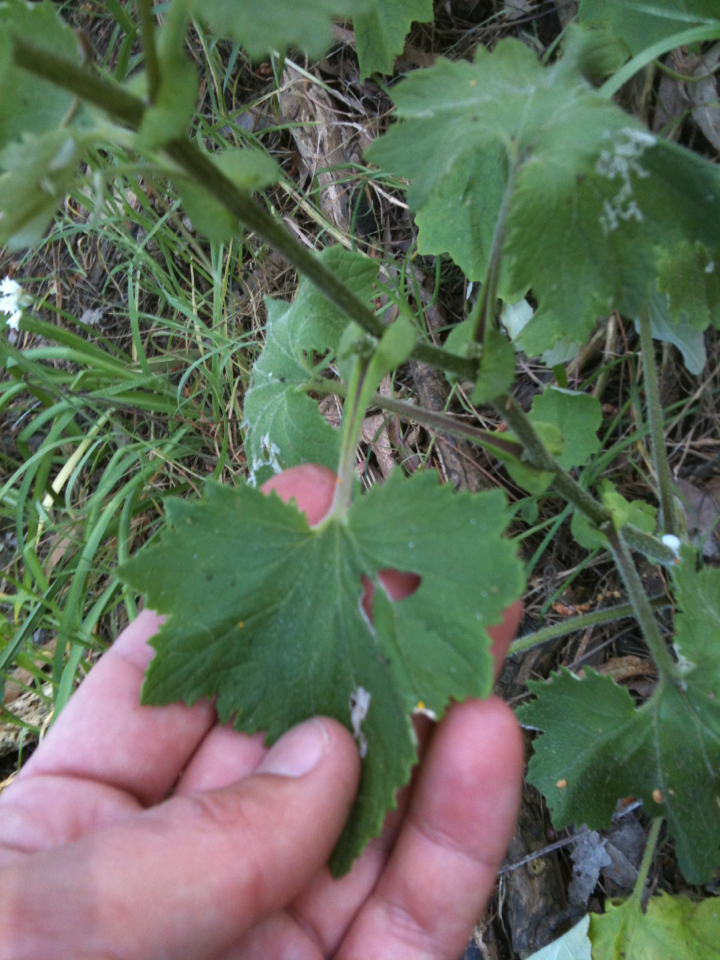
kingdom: Plantae
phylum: Tracheophyta
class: Magnoliopsida
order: Asterales
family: Asteraceae
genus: Pericallis
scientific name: Pericallis hybrida
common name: Cineraria
